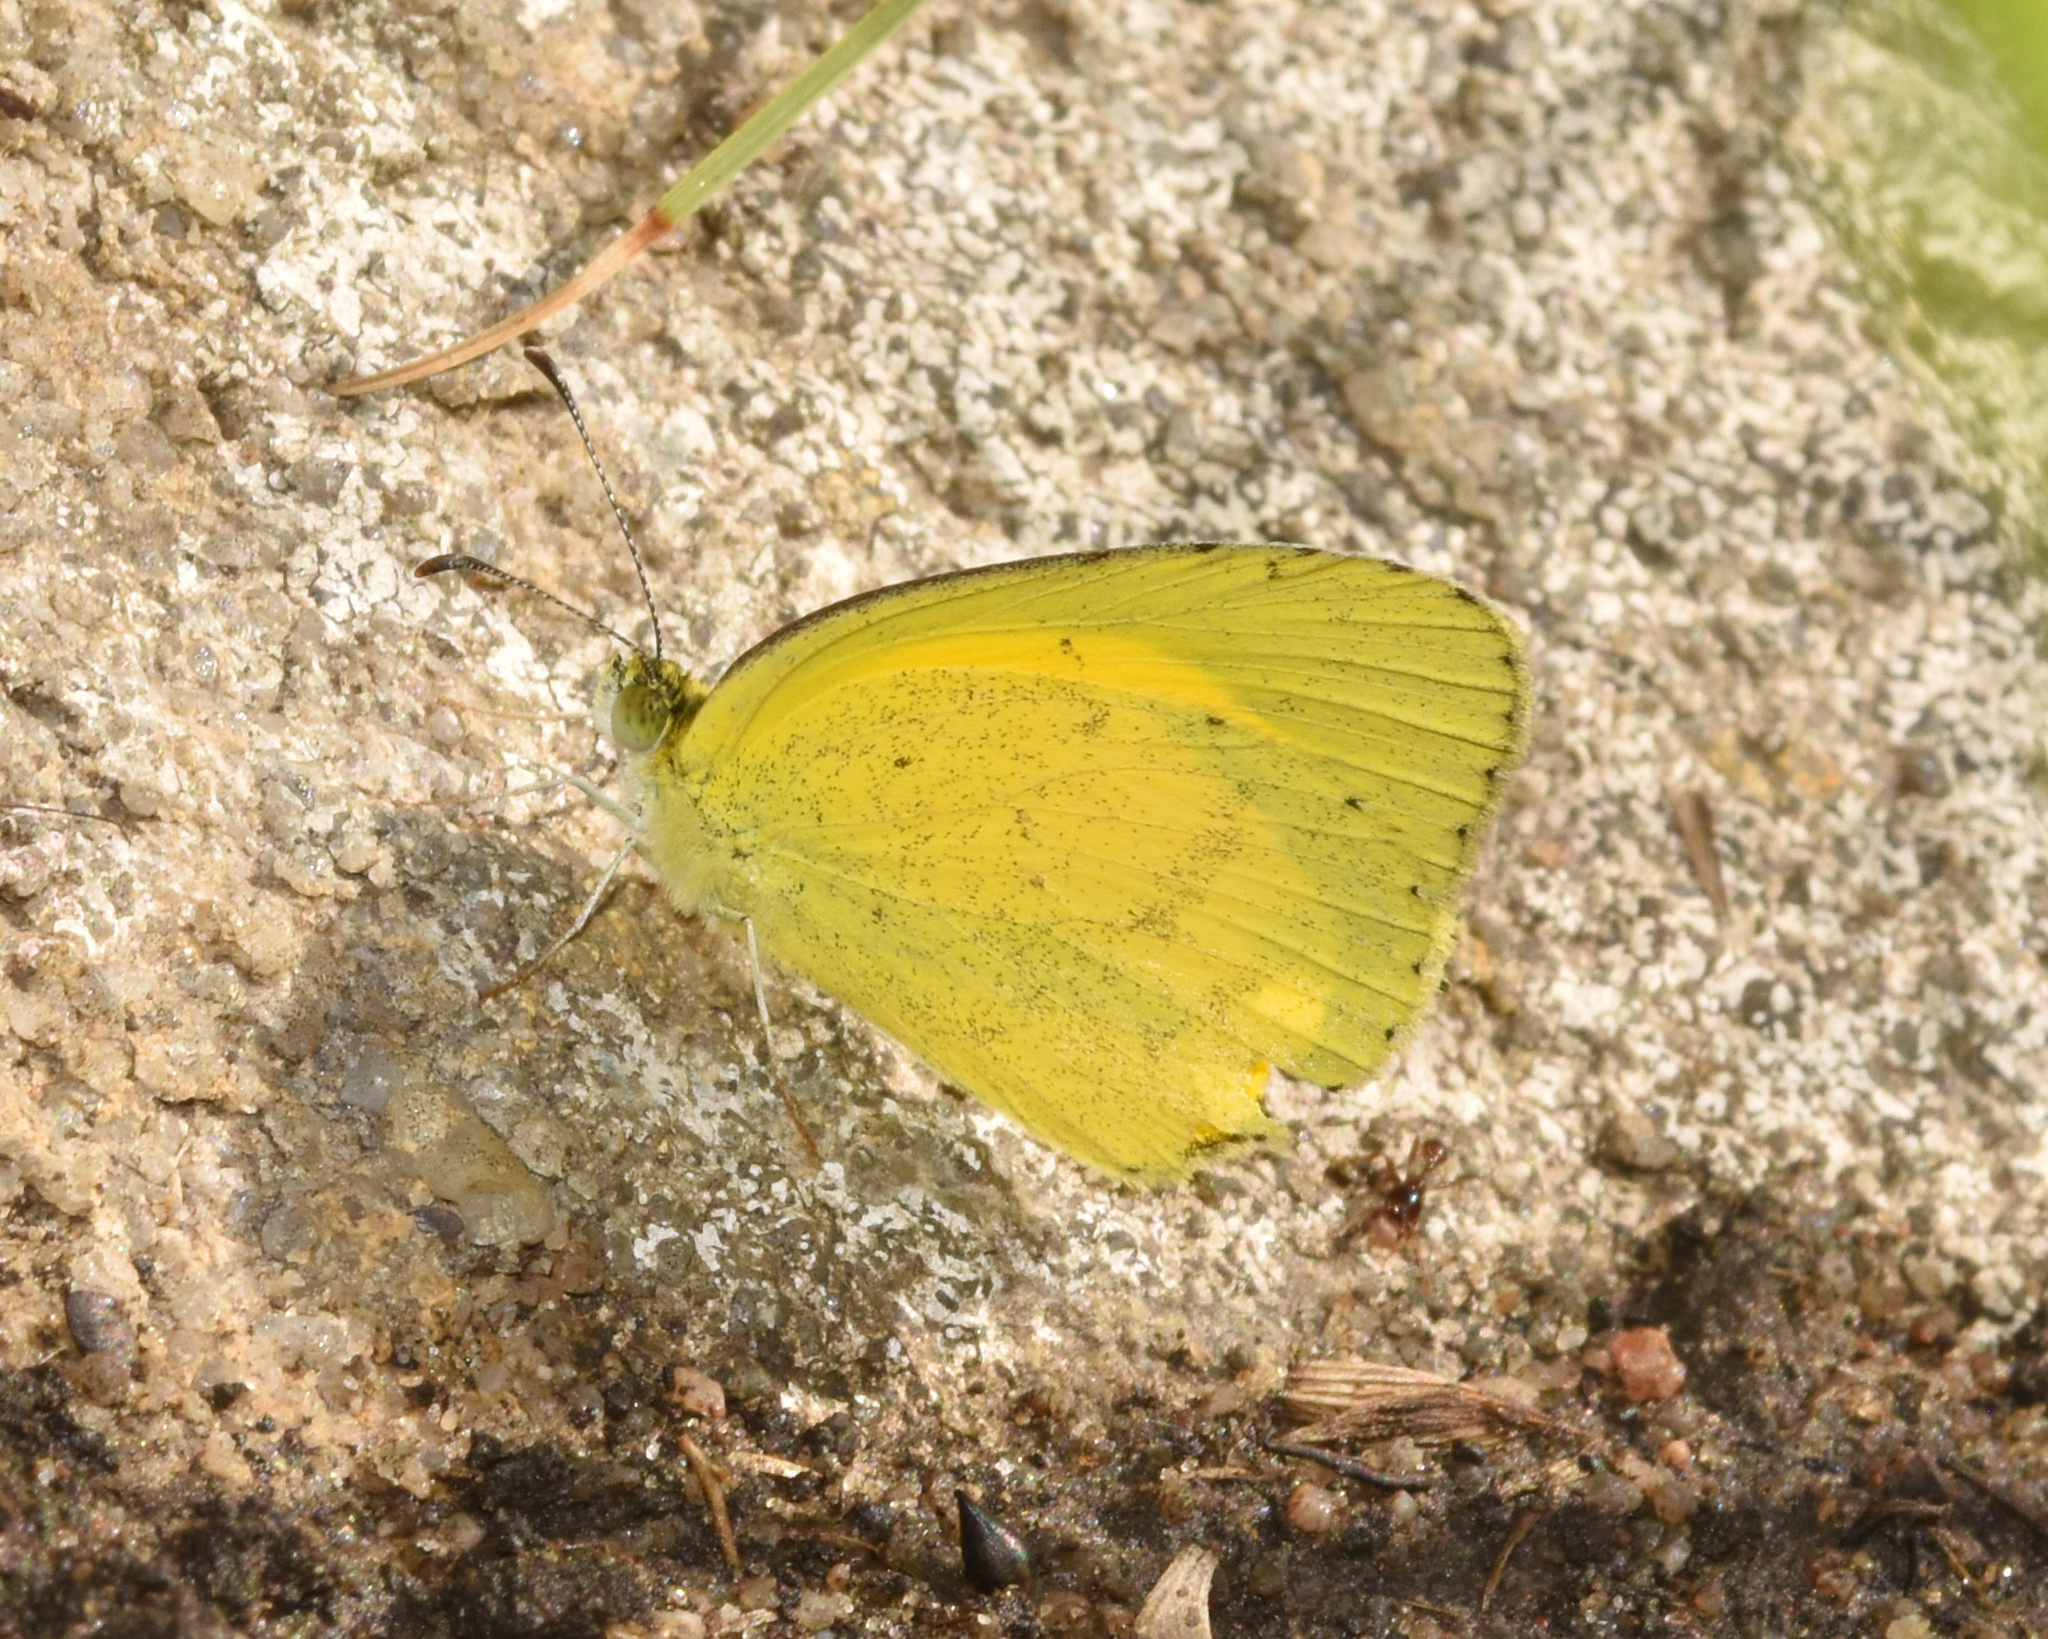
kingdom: Animalia
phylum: Arthropoda
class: Insecta
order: Lepidoptera
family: Pieridae
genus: Eurema
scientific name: Eurema brigitta
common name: Small grass yellow
